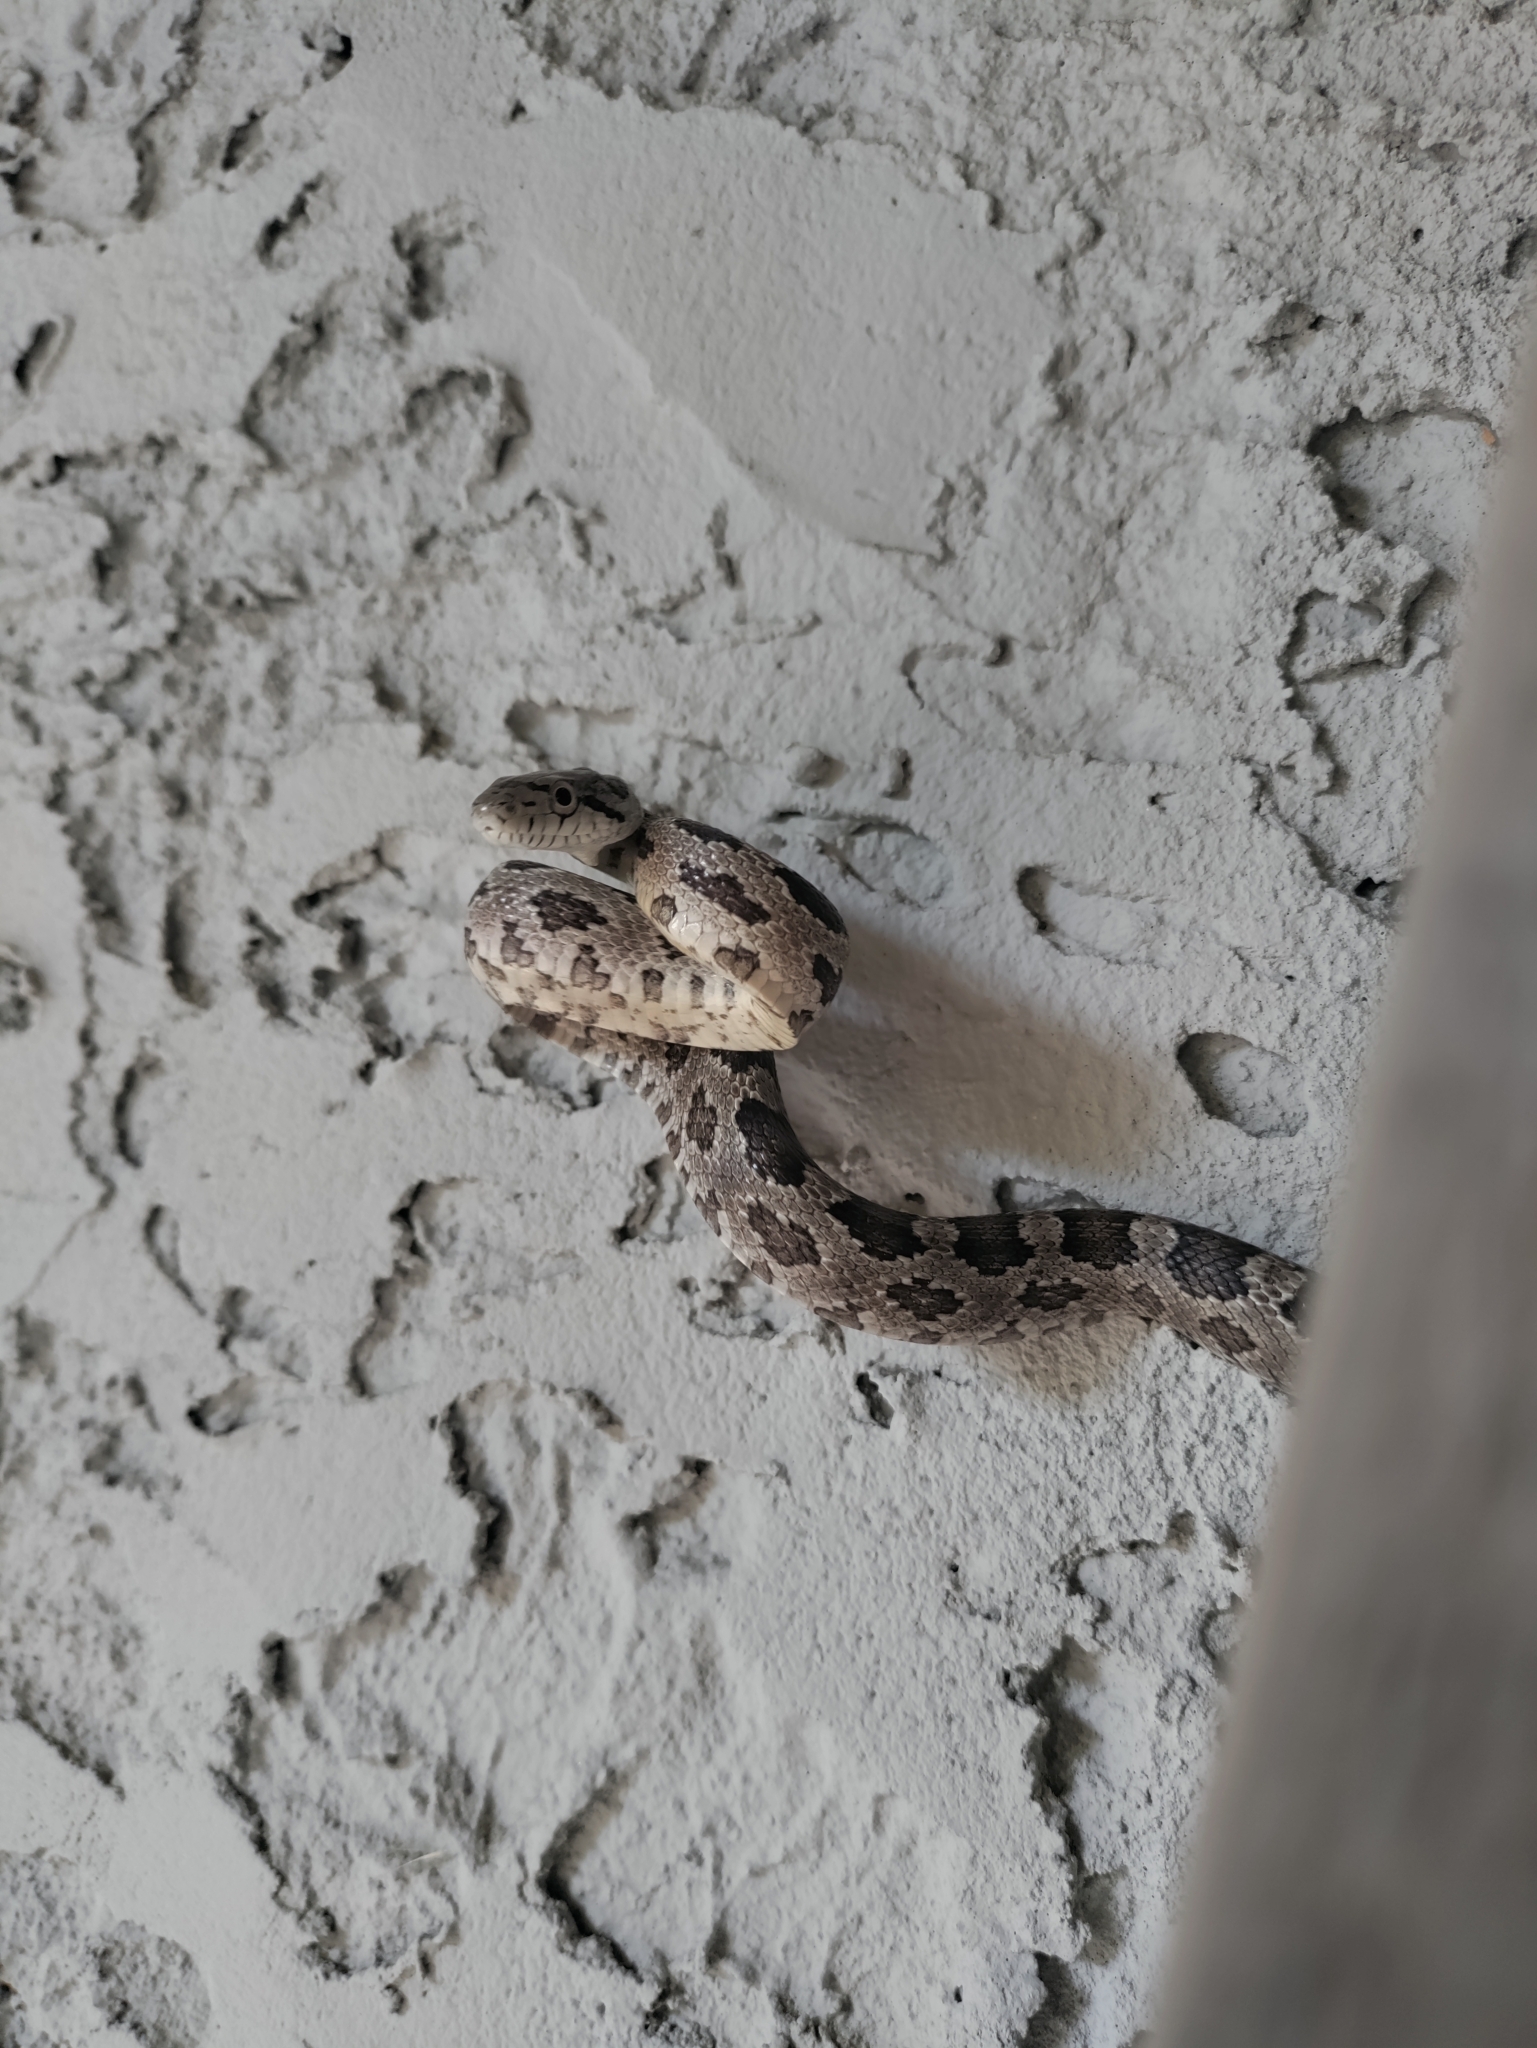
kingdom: Animalia
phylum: Chordata
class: Squamata
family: Colubridae
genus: Pantherophis
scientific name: Pantherophis alleghaniensis
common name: Eastern rat snake
